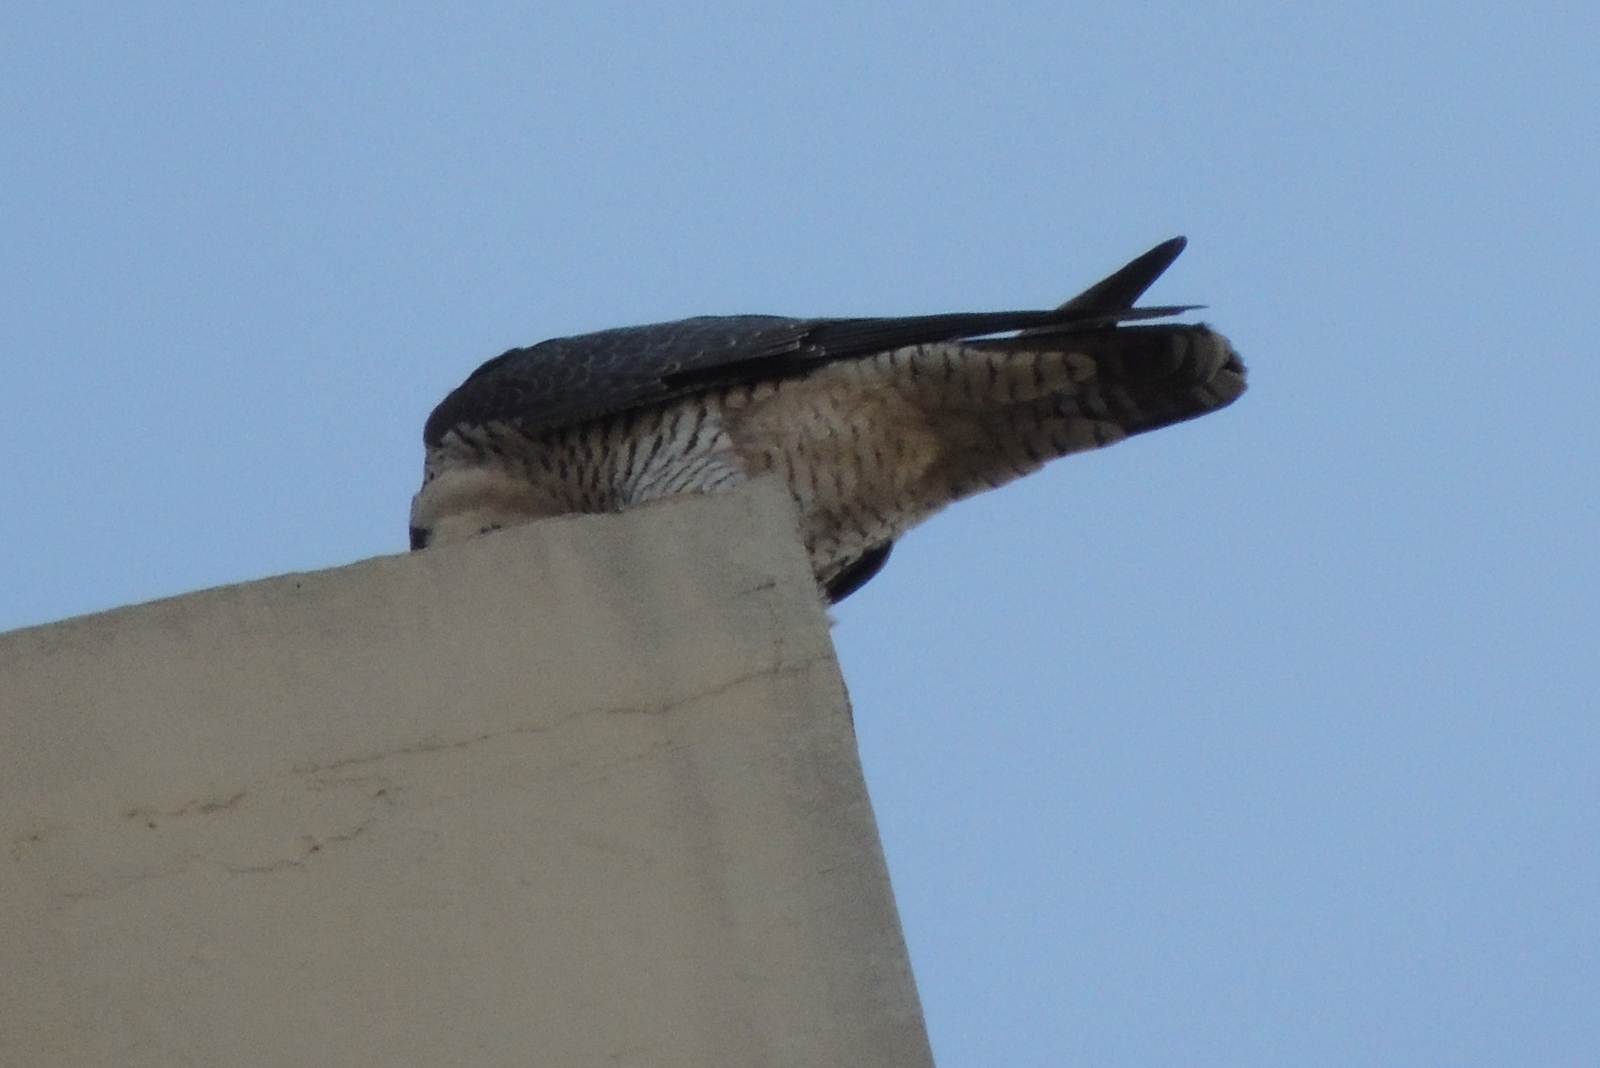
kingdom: Animalia
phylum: Chordata
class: Aves
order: Falconiformes
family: Falconidae
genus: Falco
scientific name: Falco peregrinus
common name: Peregrine falcon
